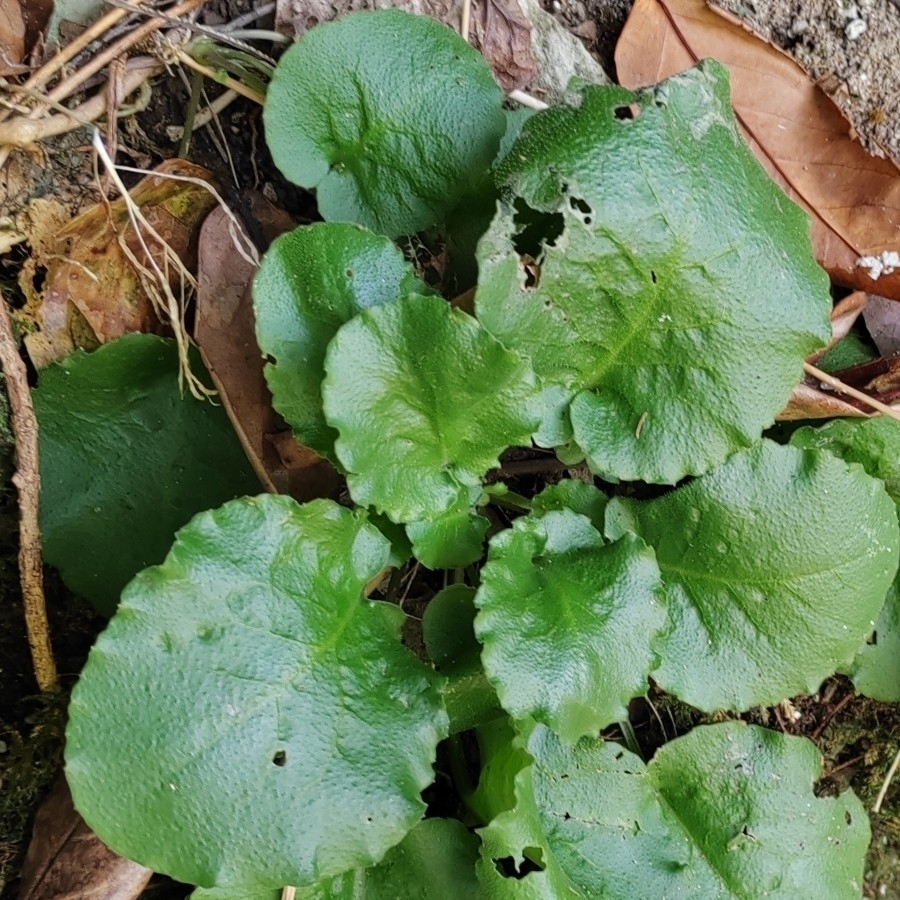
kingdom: Plantae
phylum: Tracheophyta
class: Magnoliopsida
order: Brassicales
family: Brassicaceae
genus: Arabis
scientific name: Arabis nordmanniana
